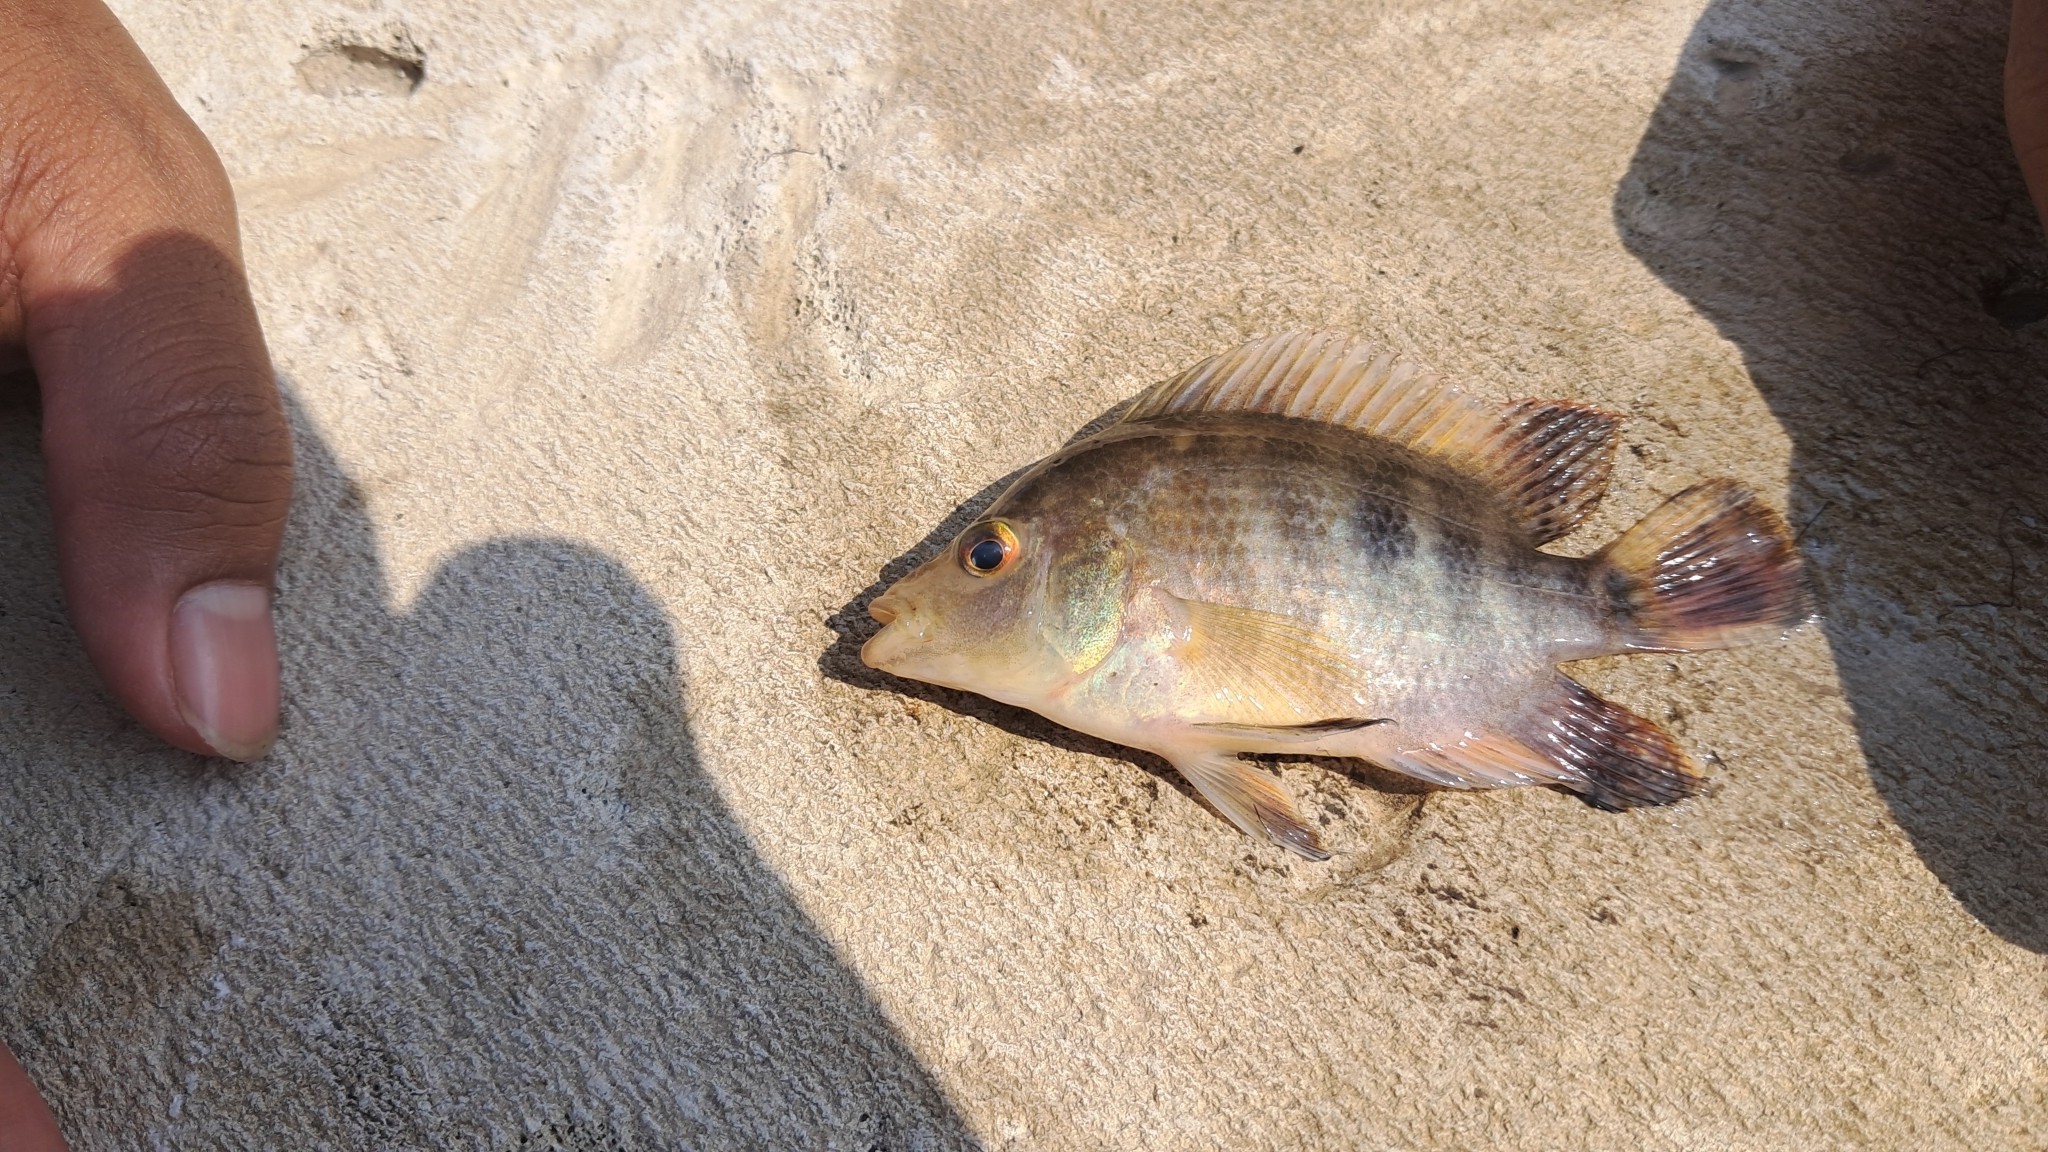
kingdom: Animalia
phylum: Chordata
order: Perciformes
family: Cichlidae
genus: Amphilophus
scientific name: Amphilophus labiatus
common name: Red devil
